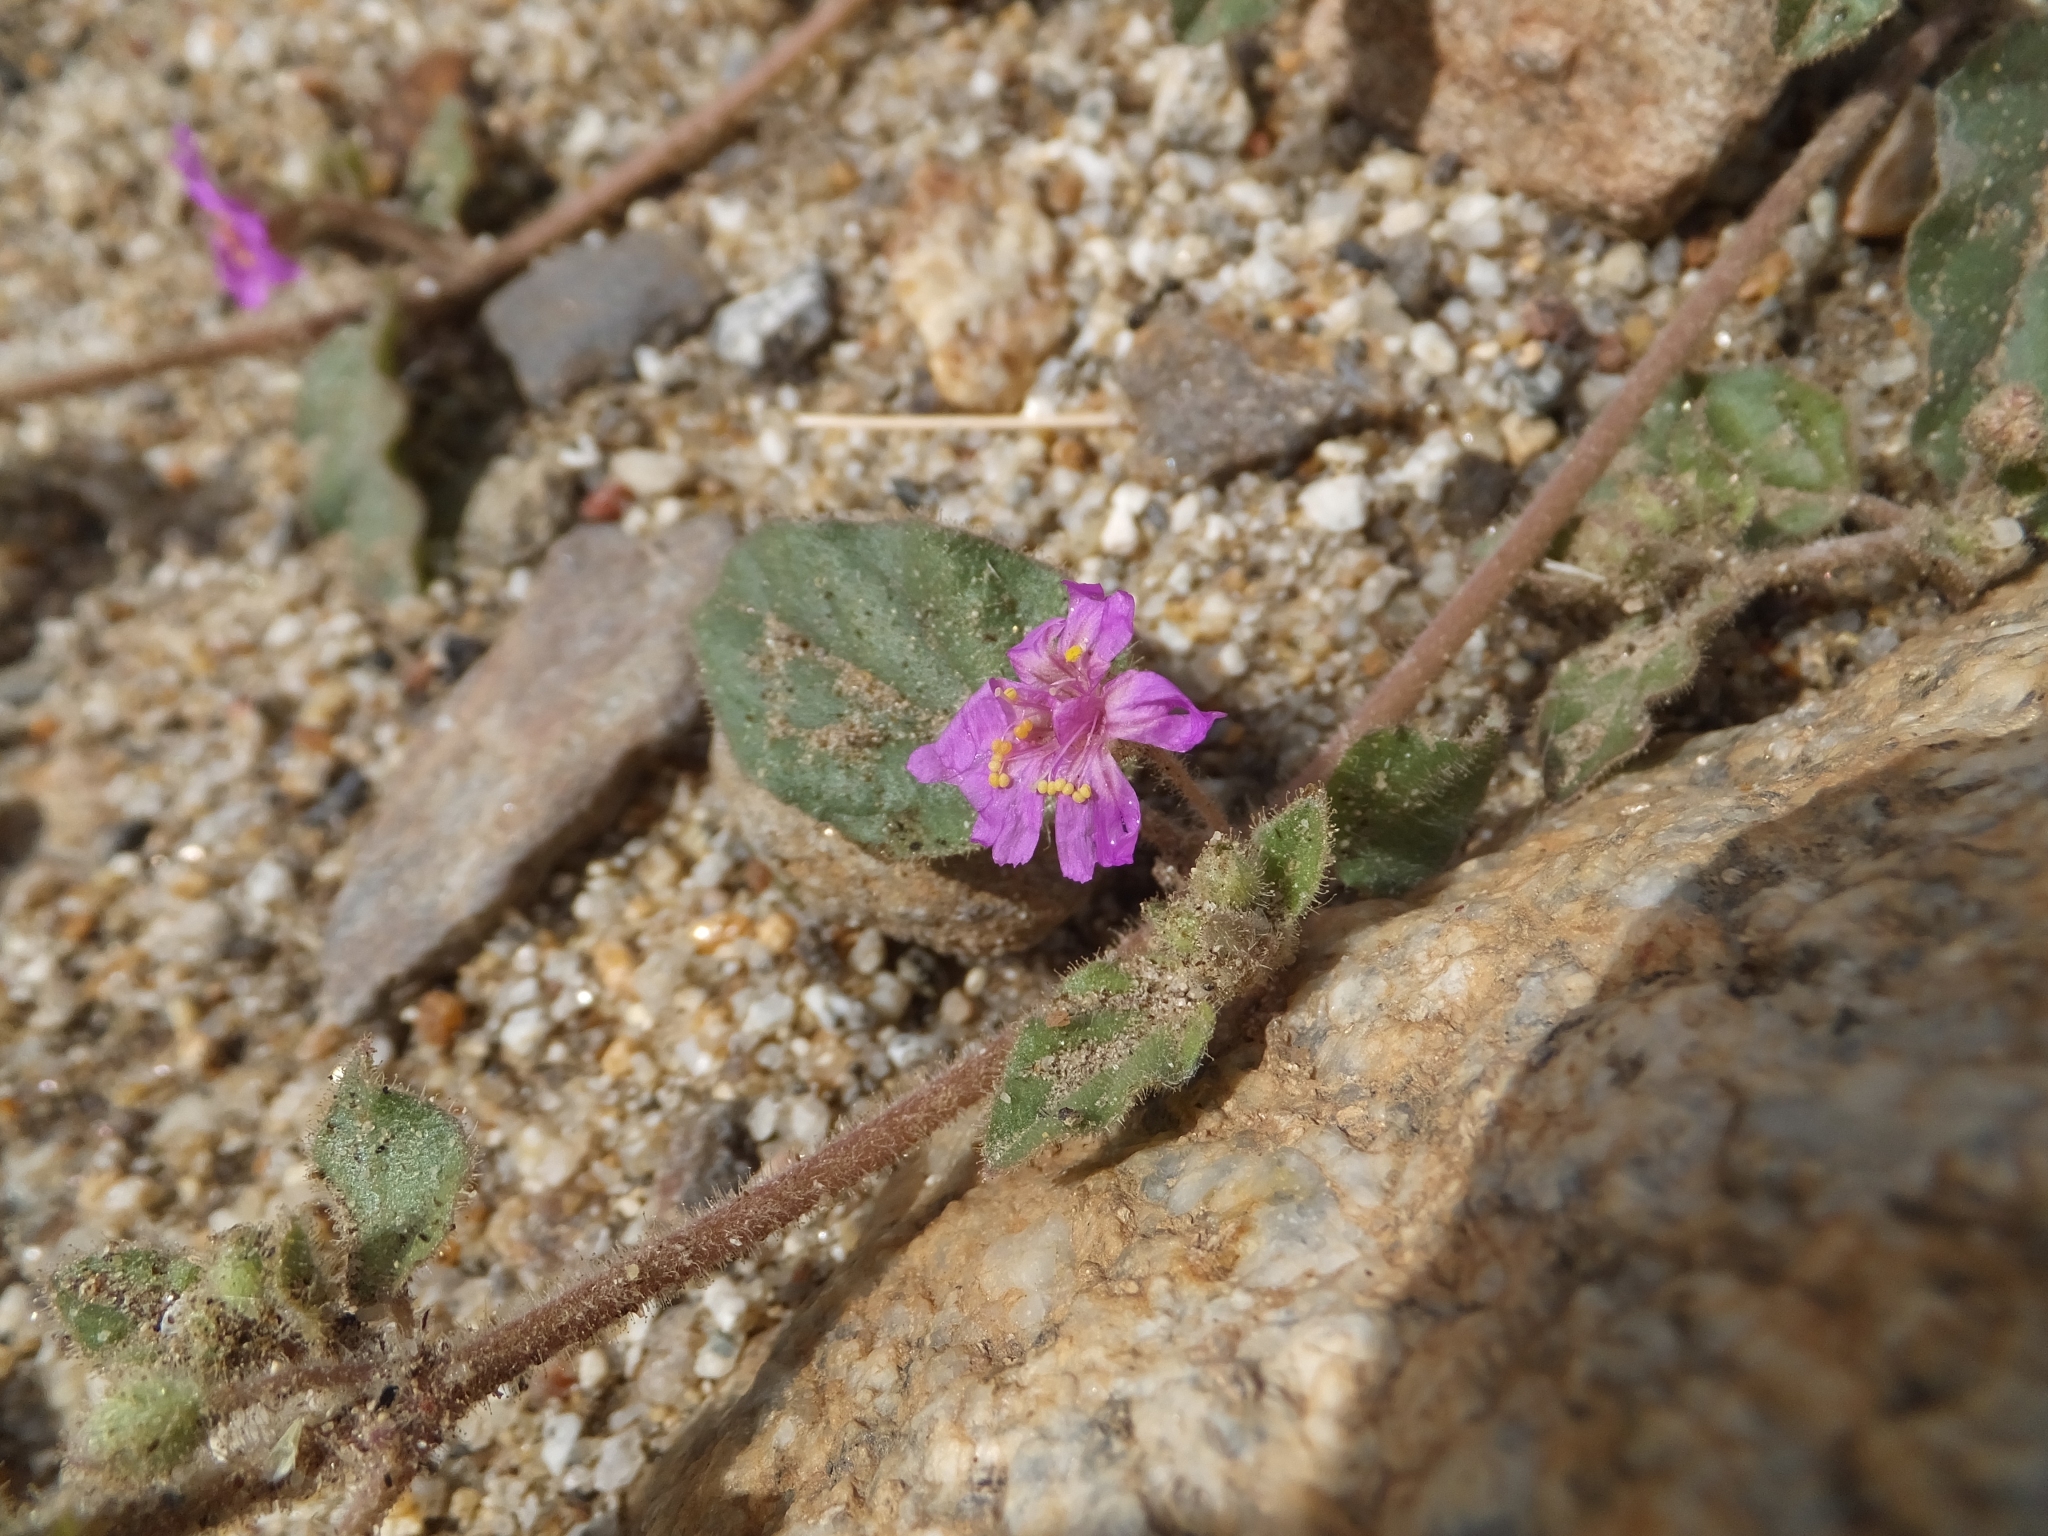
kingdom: Plantae
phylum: Tracheophyta
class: Magnoliopsida
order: Caryophyllales
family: Nyctaginaceae
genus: Allionia
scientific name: Allionia incarnata
